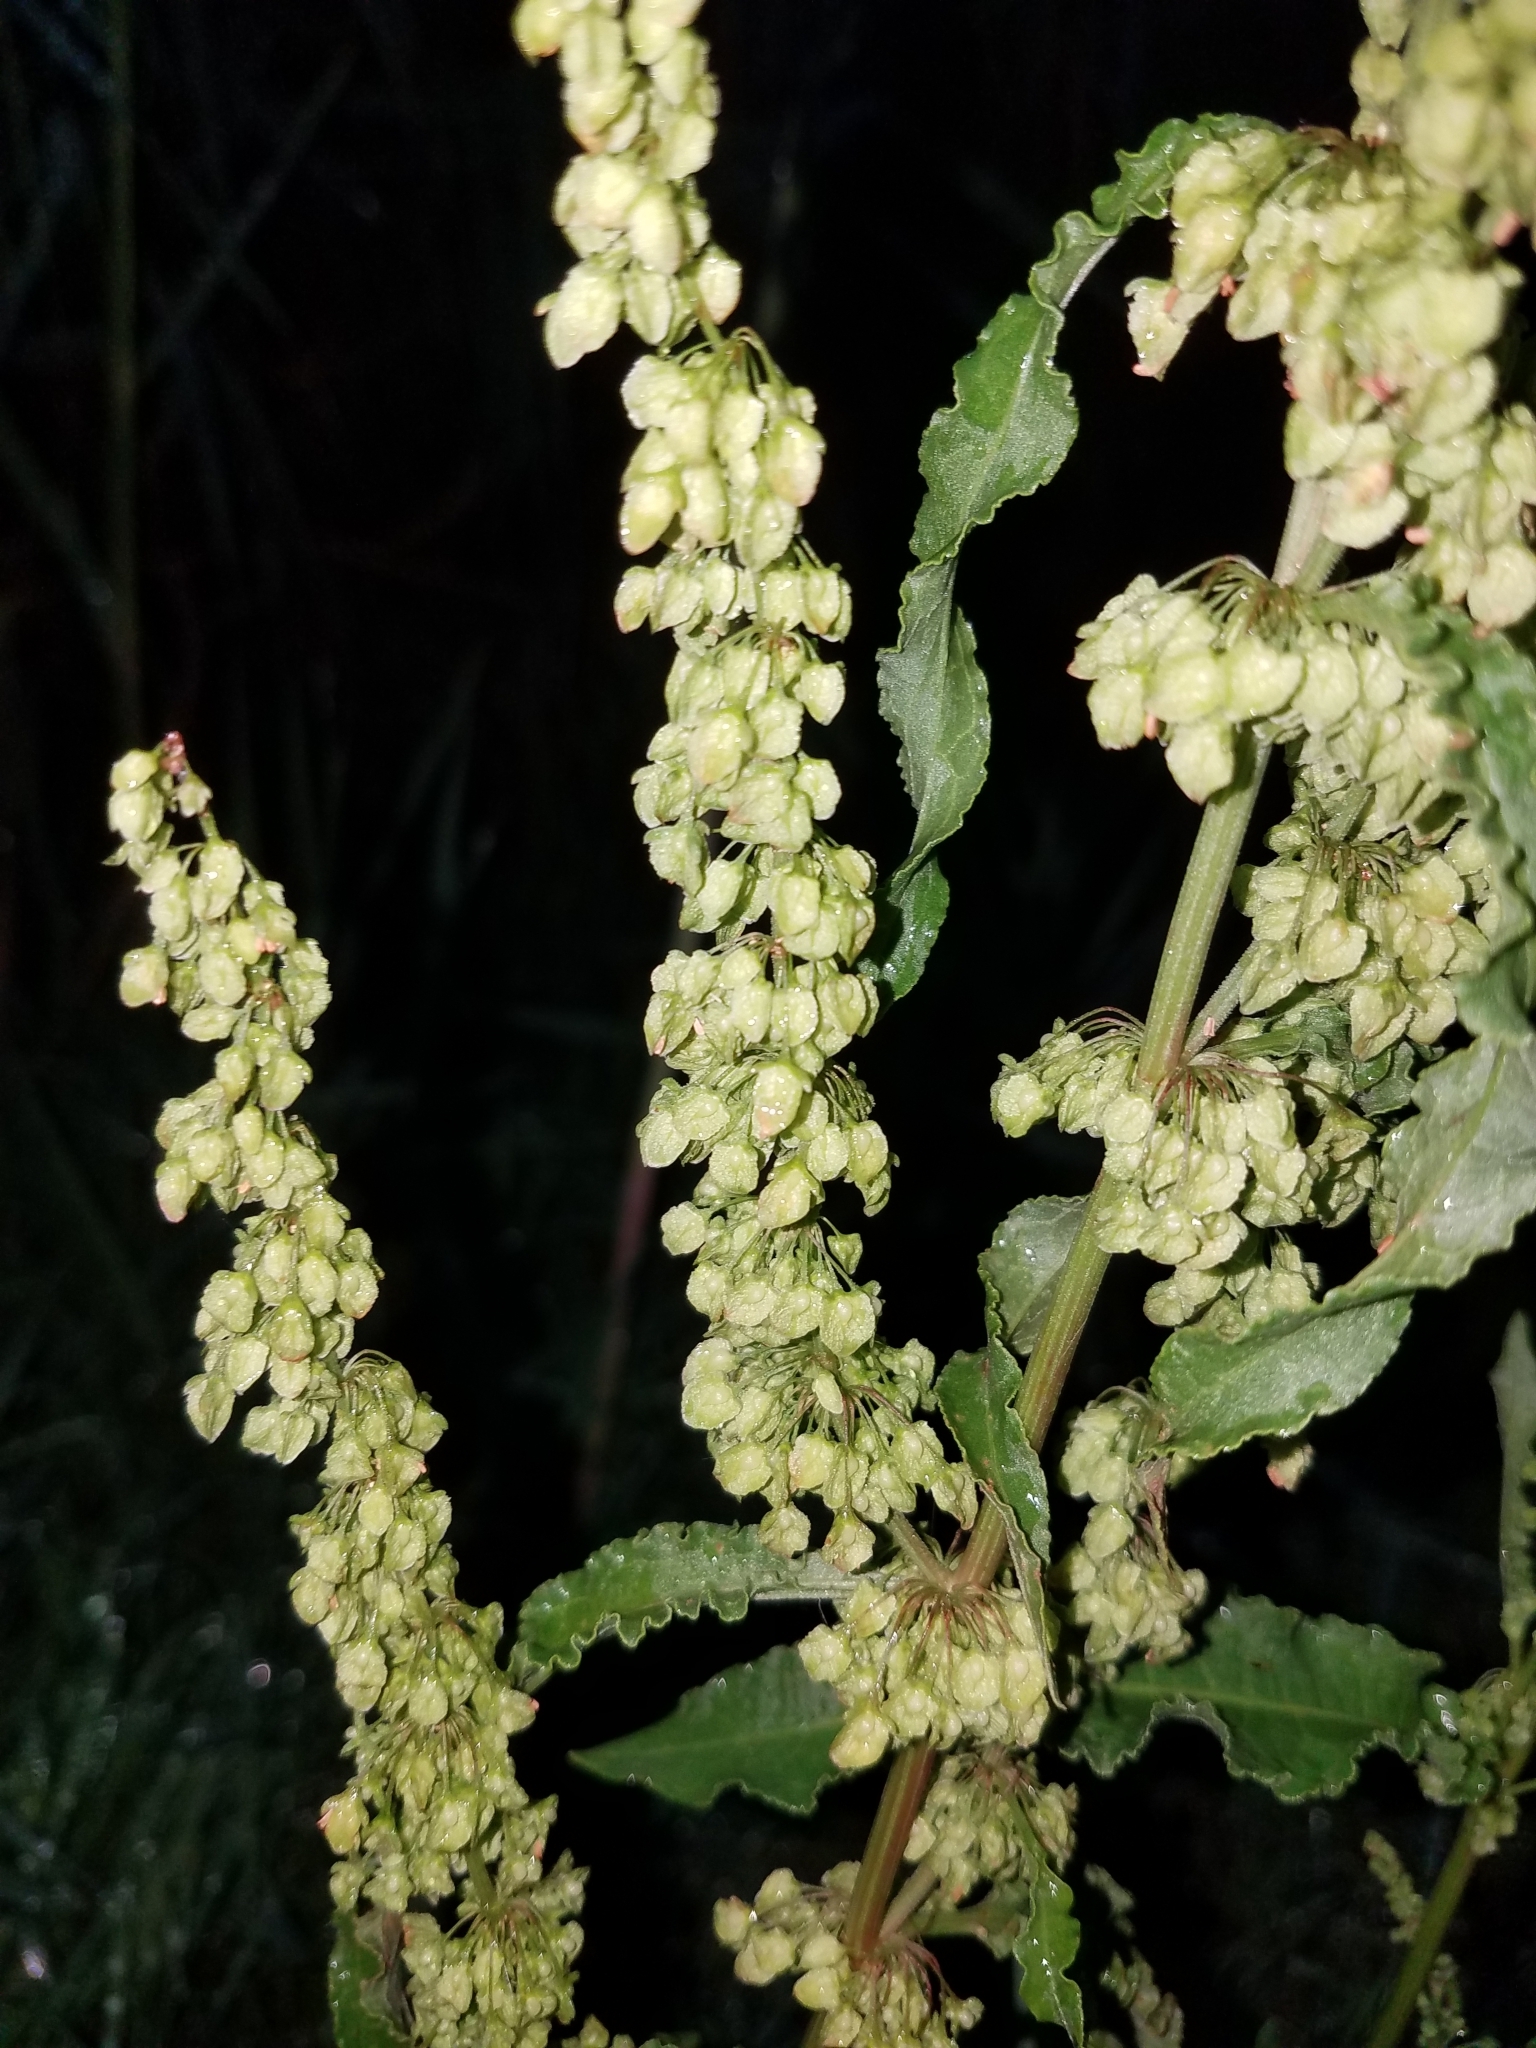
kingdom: Plantae
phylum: Tracheophyta
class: Magnoliopsida
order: Caryophyllales
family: Polygonaceae
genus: Rumex
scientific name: Rumex crispus
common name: Curled dock
